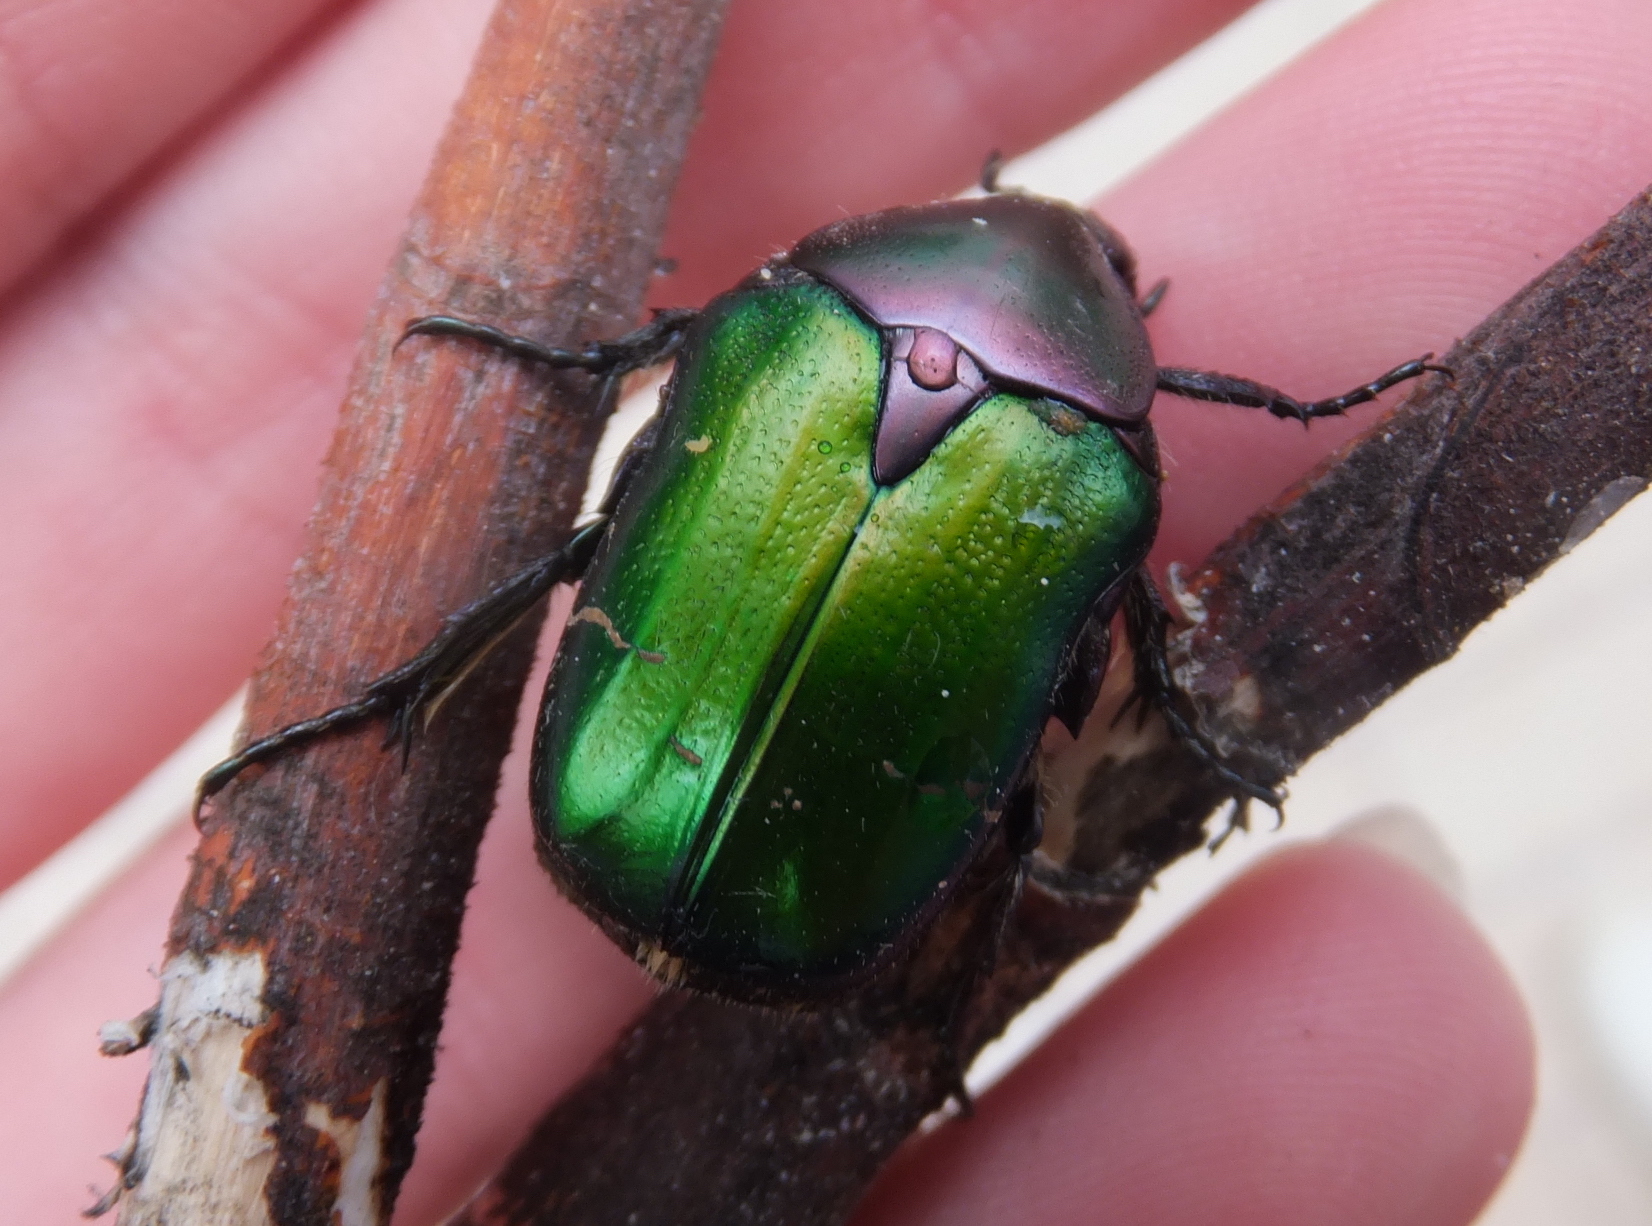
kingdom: Animalia
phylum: Arthropoda
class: Insecta
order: Coleoptera
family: Scarabaeidae
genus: Cetonia
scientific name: Cetonia aurata
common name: Rose chafer
